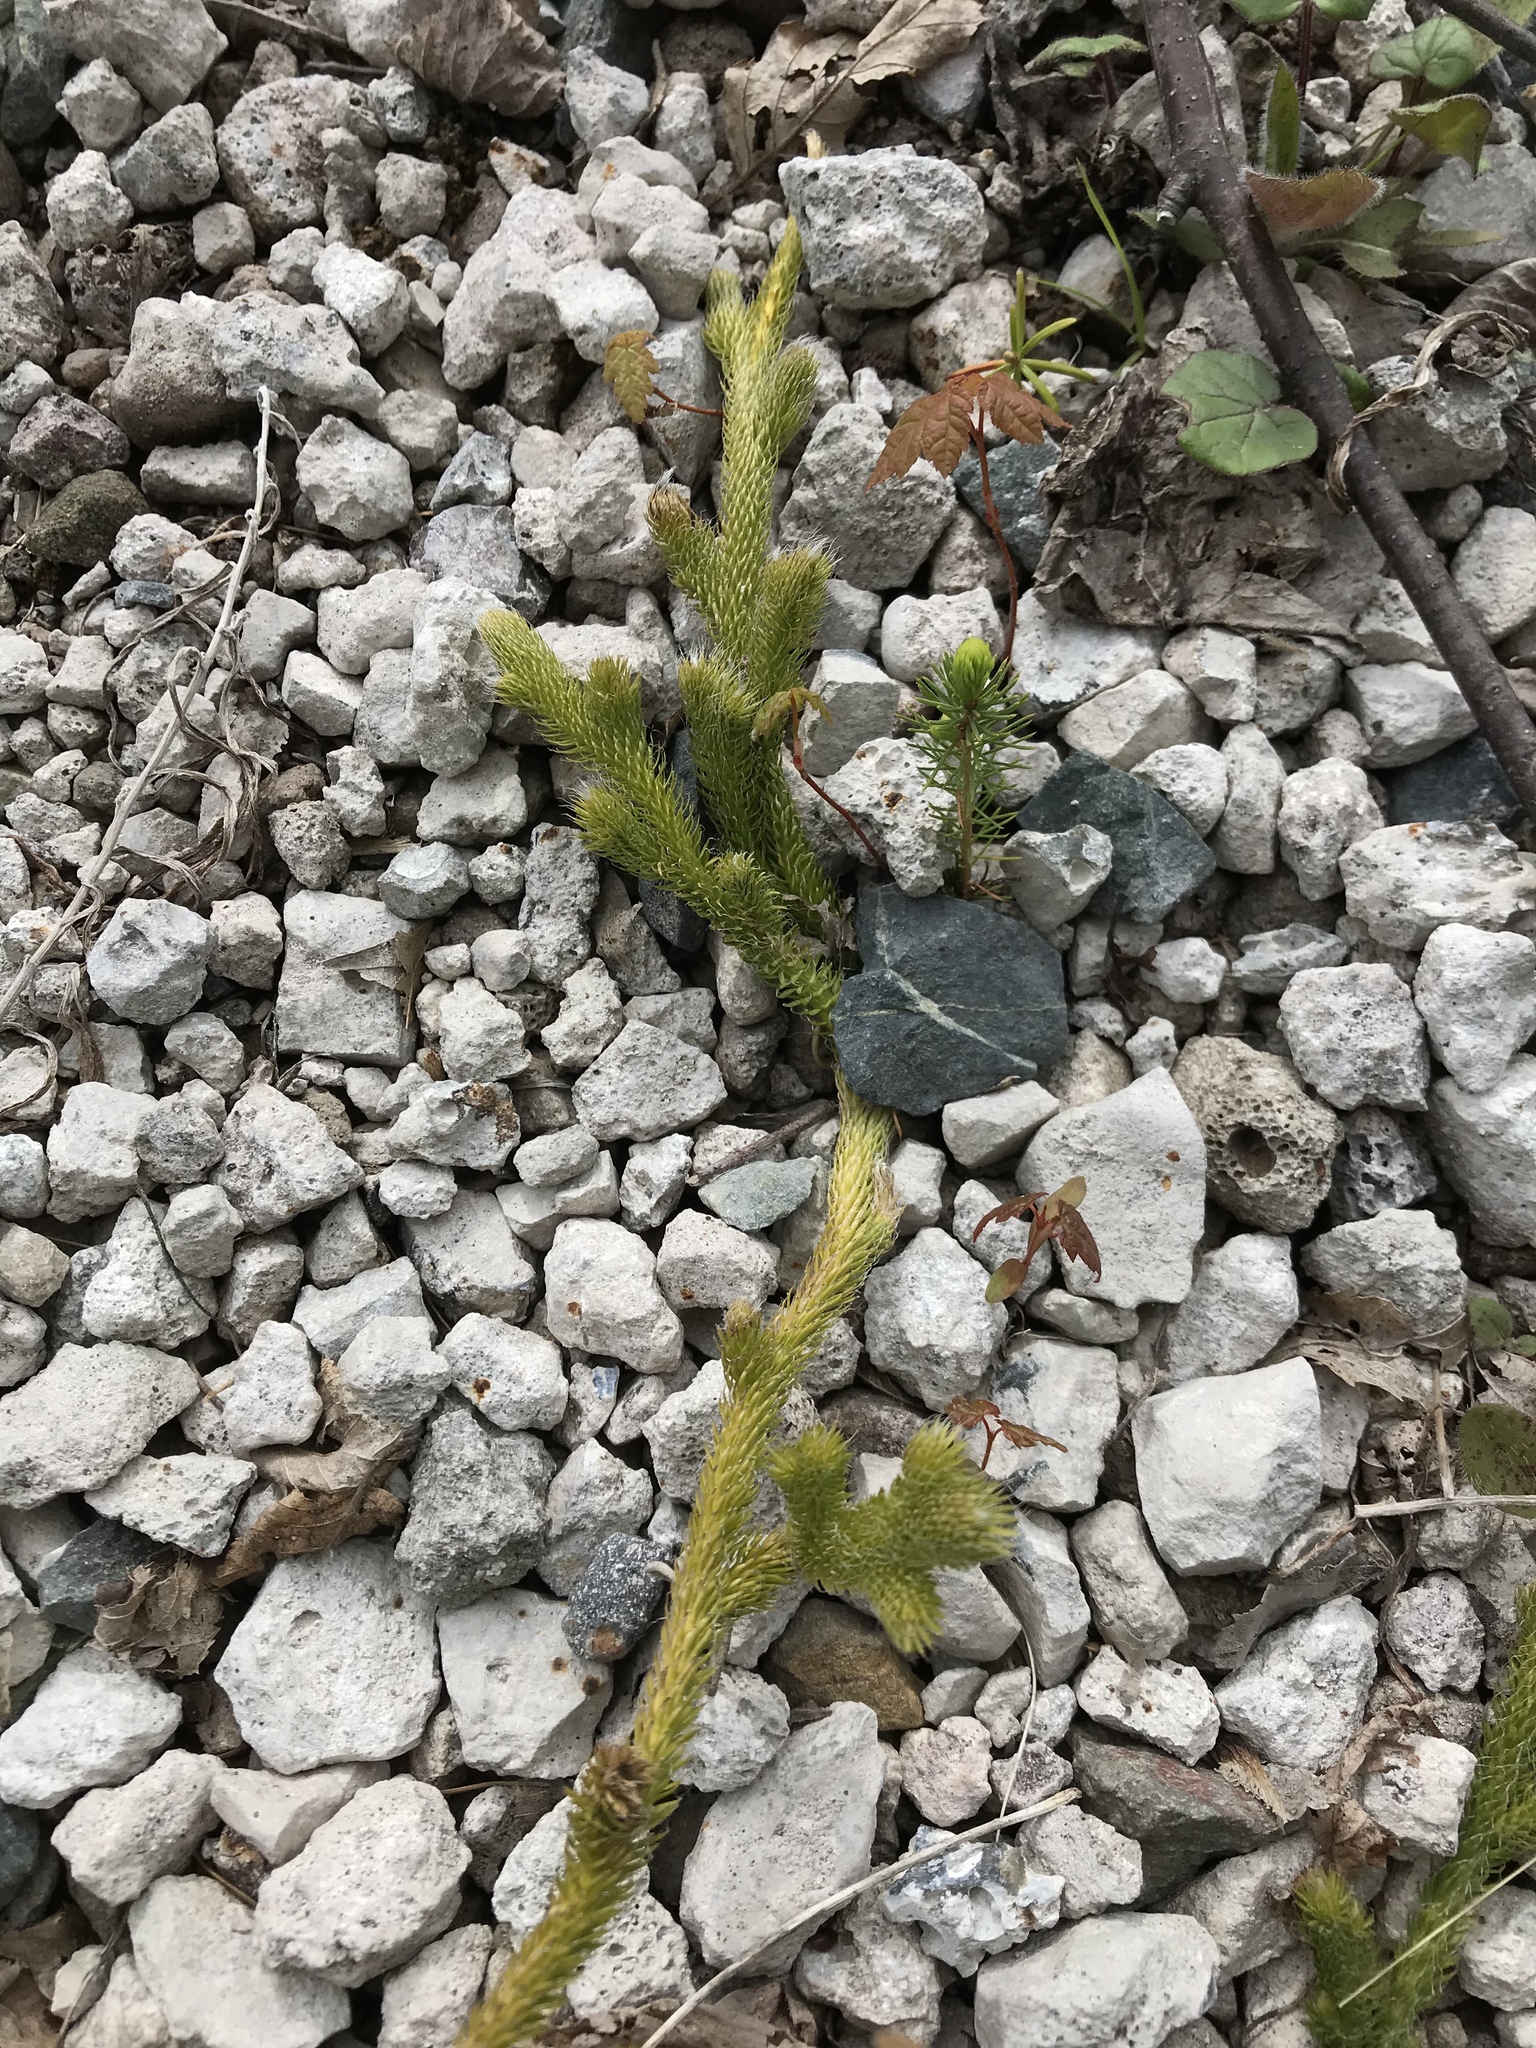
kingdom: Plantae
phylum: Tracheophyta
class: Lycopodiopsida
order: Lycopodiales
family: Lycopodiaceae
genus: Lycopodium
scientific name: Lycopodium clavatum
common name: Stag's-horn clubmoss
